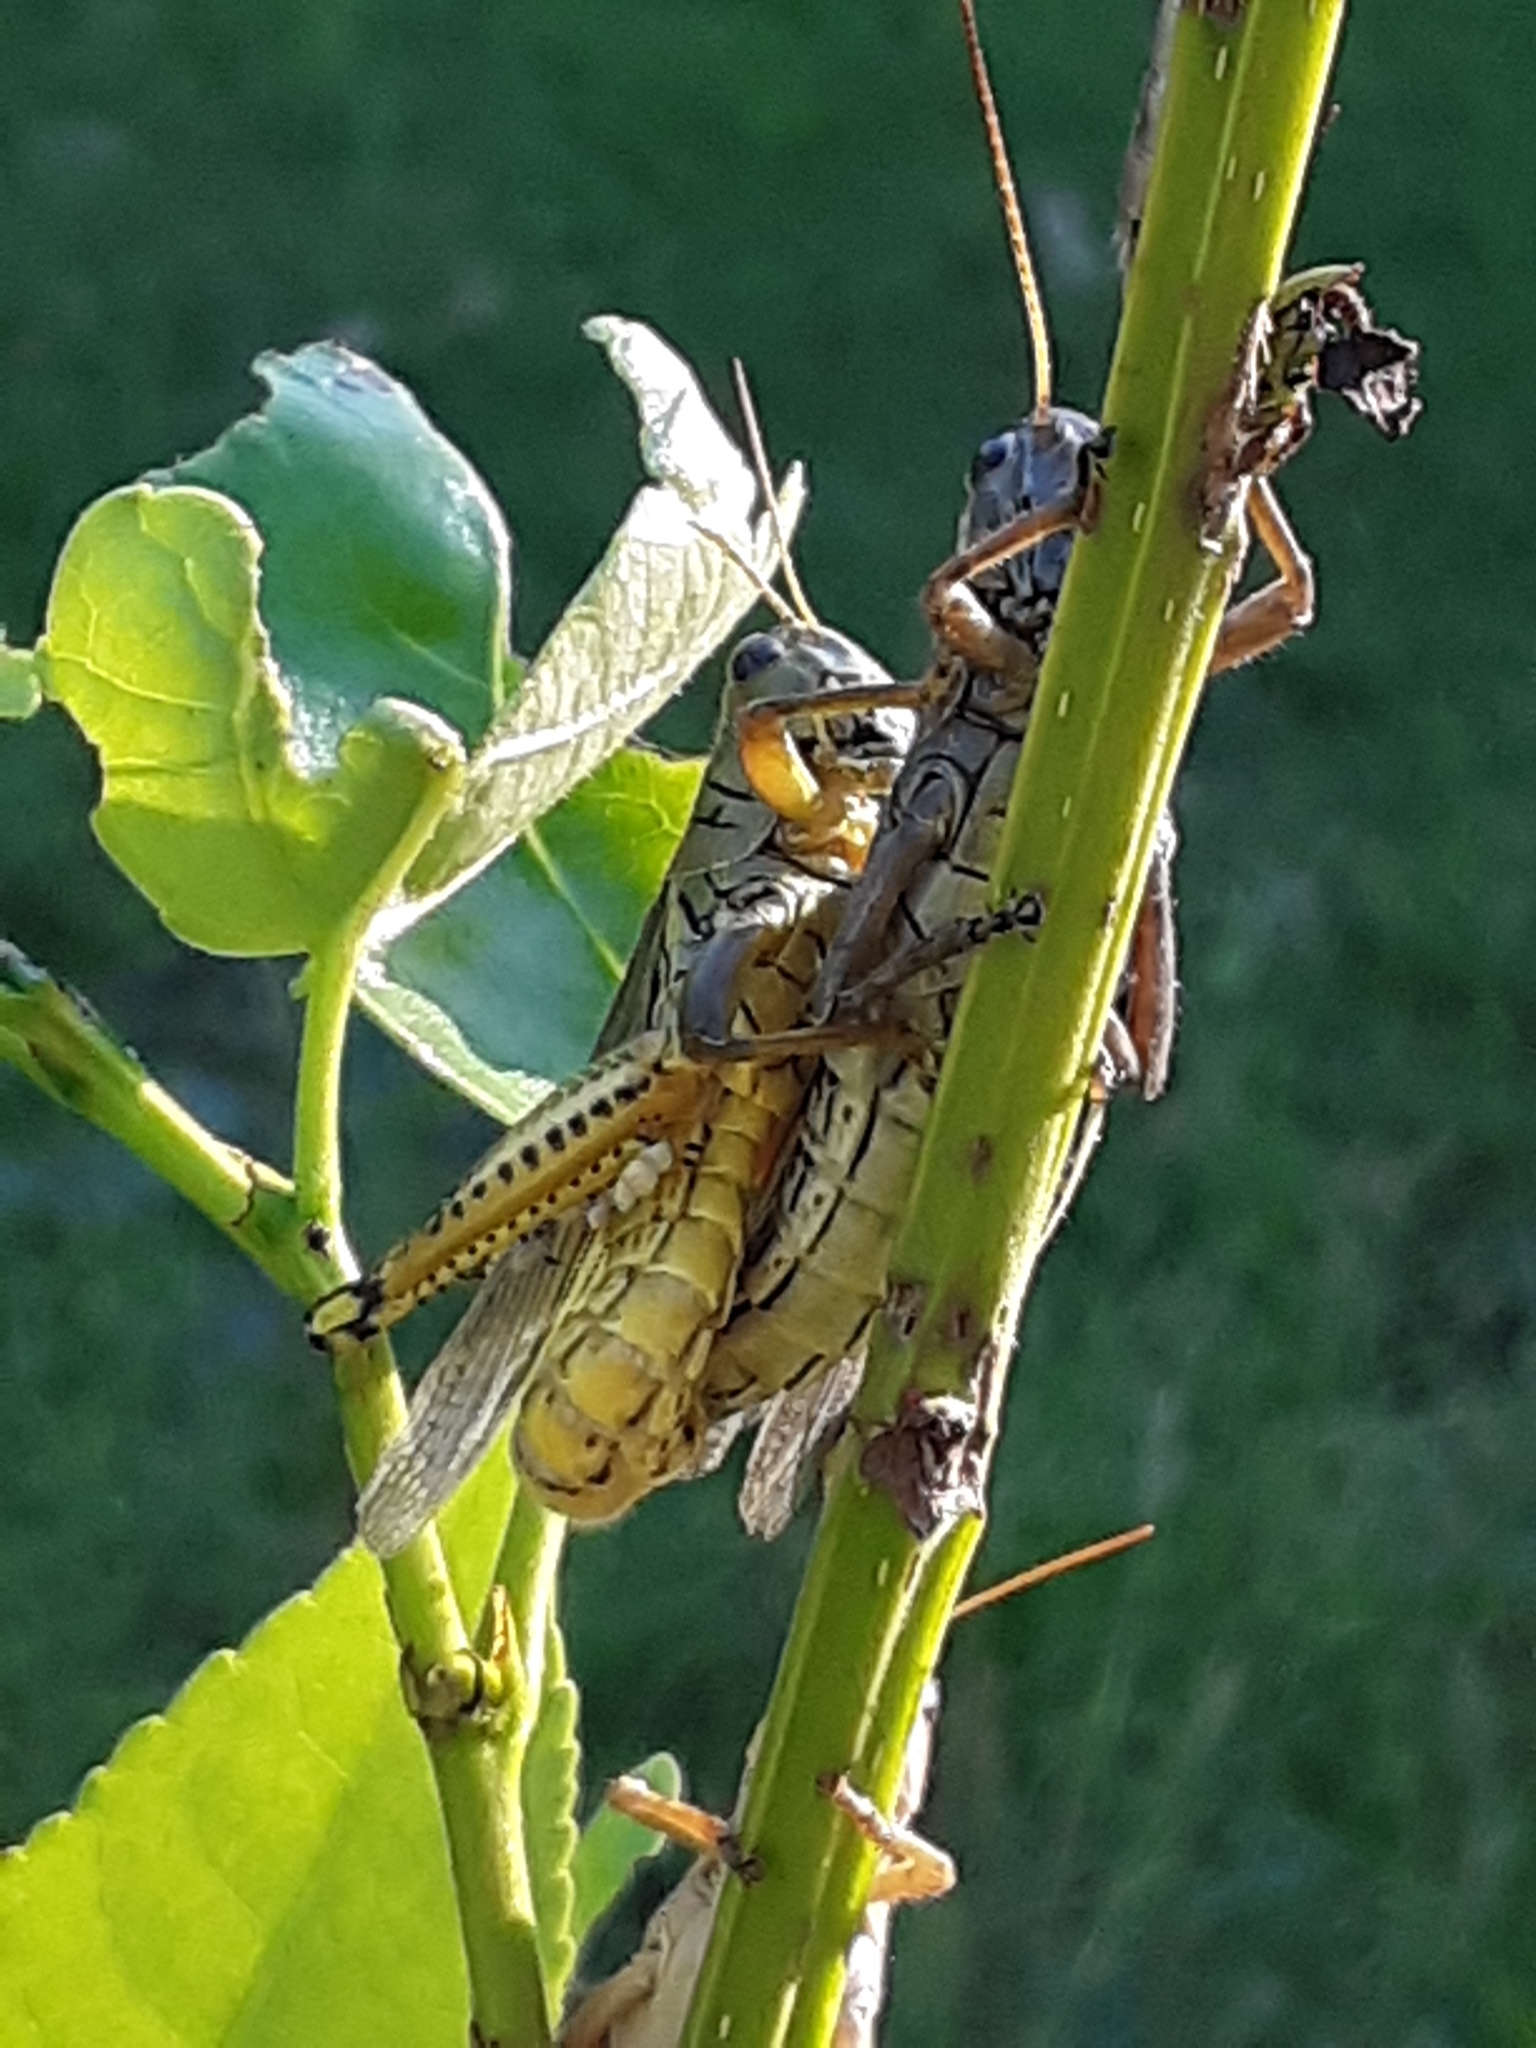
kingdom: Animalia
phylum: Arthropoda
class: Insecta
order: Orthoptera
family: Acrididae
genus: Melanoplus
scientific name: Melanoplus differentialis
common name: Differential grasshopper
